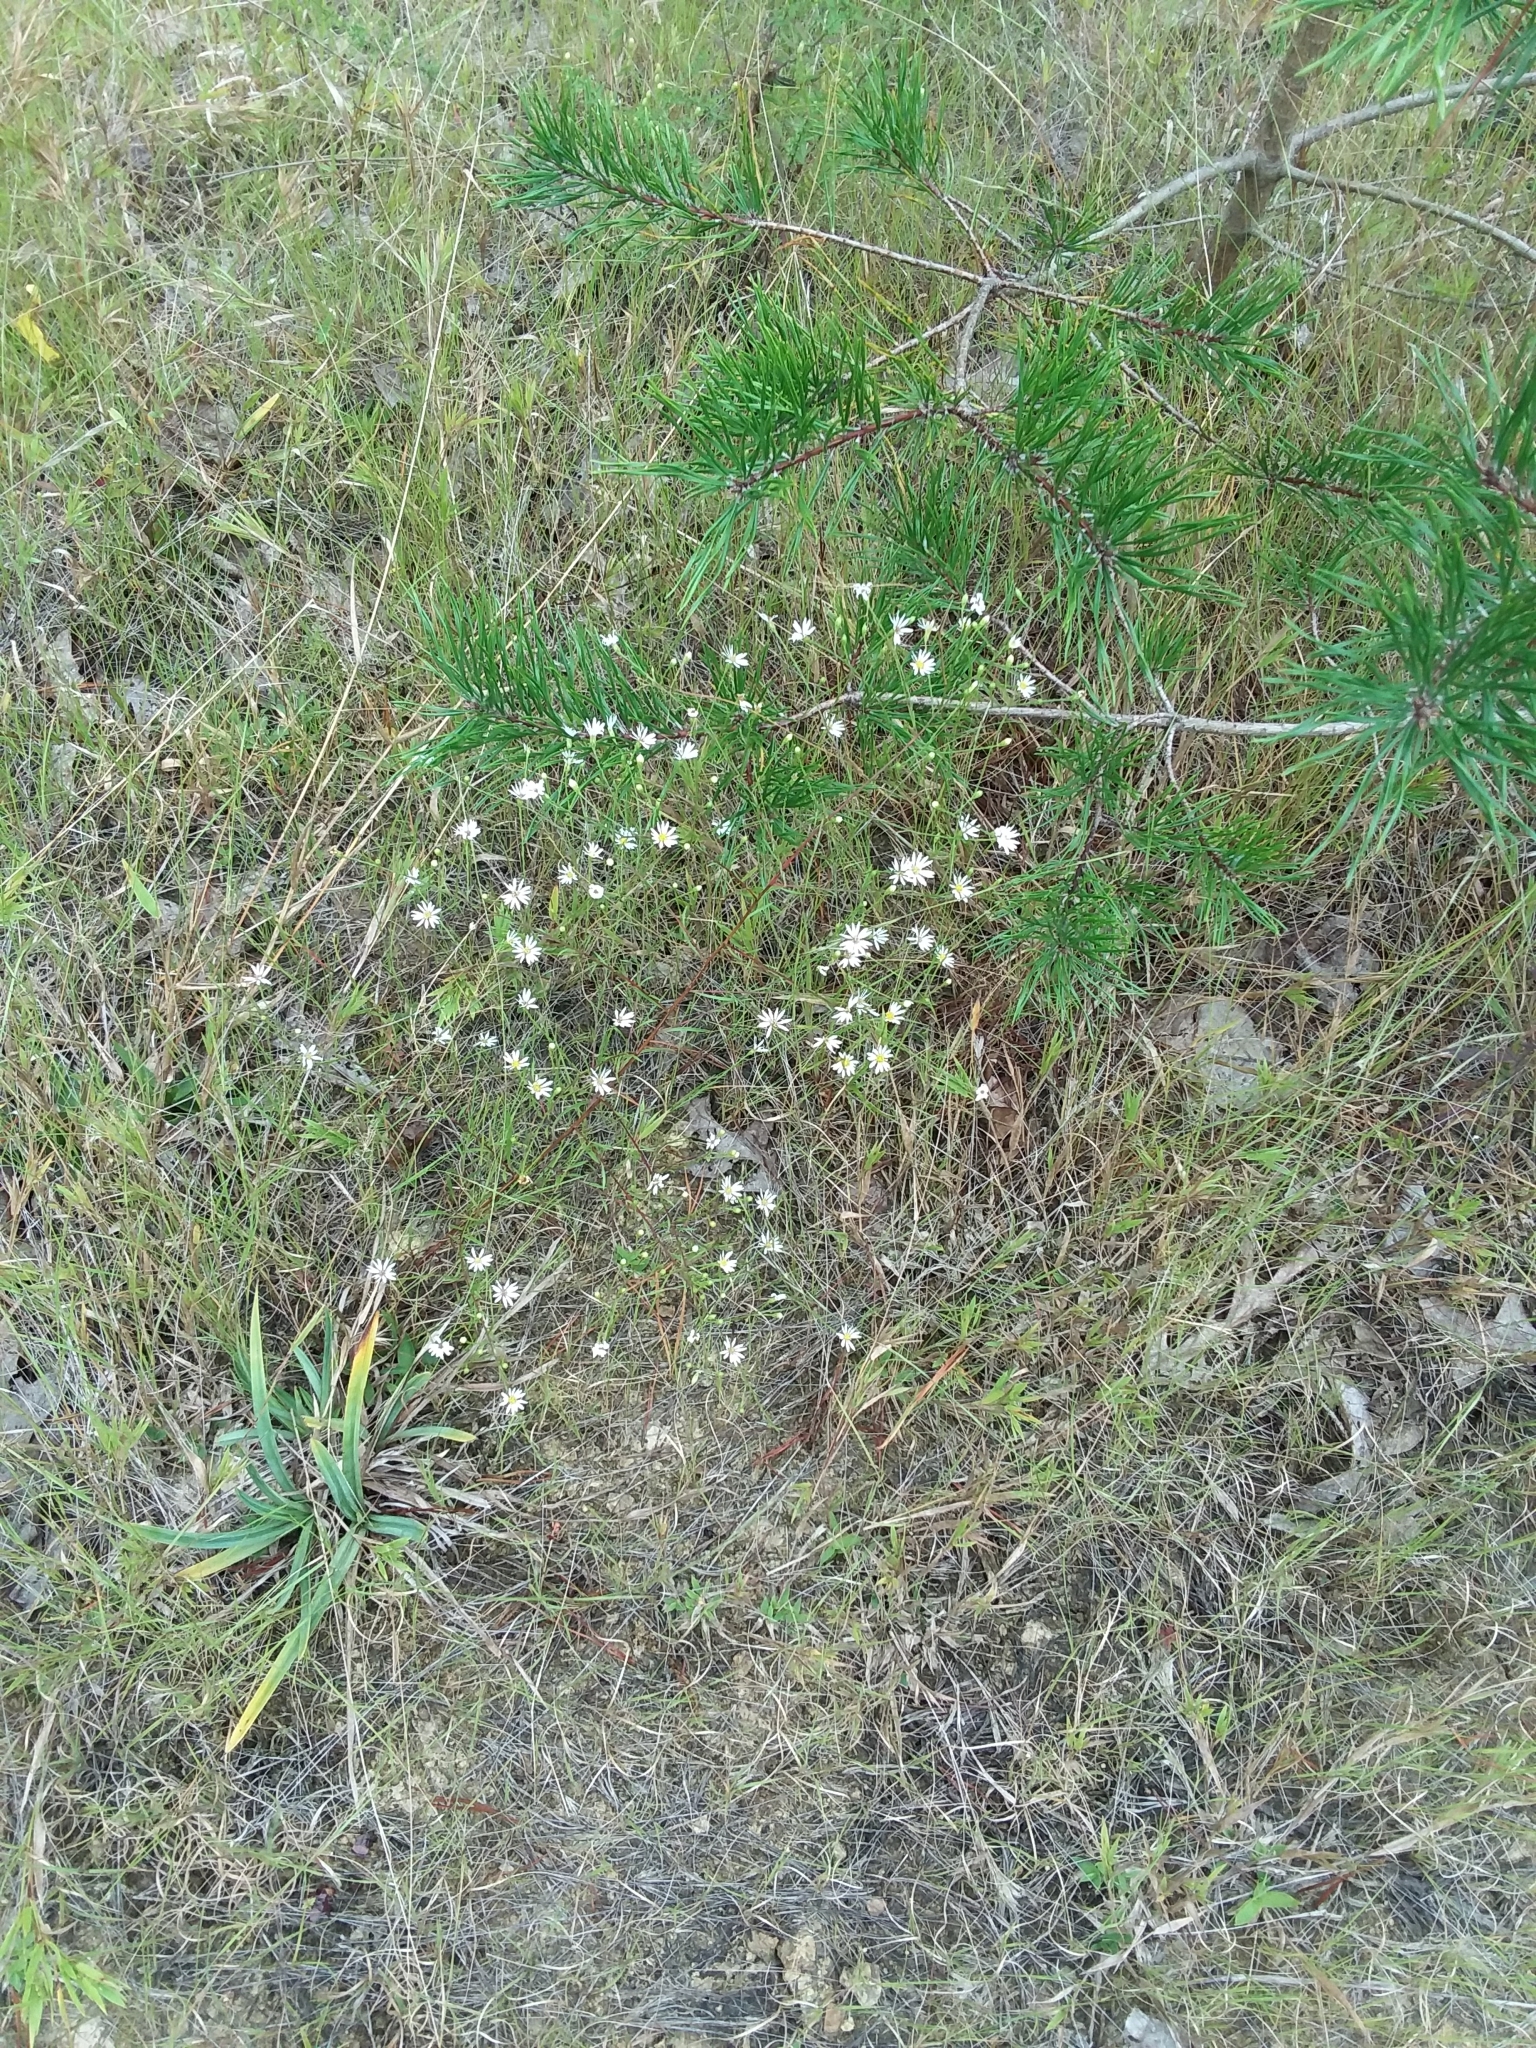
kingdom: Plantae
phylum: Tracheophyta
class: Magnoliopsida
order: Asterales
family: Asteraceae
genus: Symphyotrichum
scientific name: Symphyotrichum depauperatum
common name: Serpentine aster
